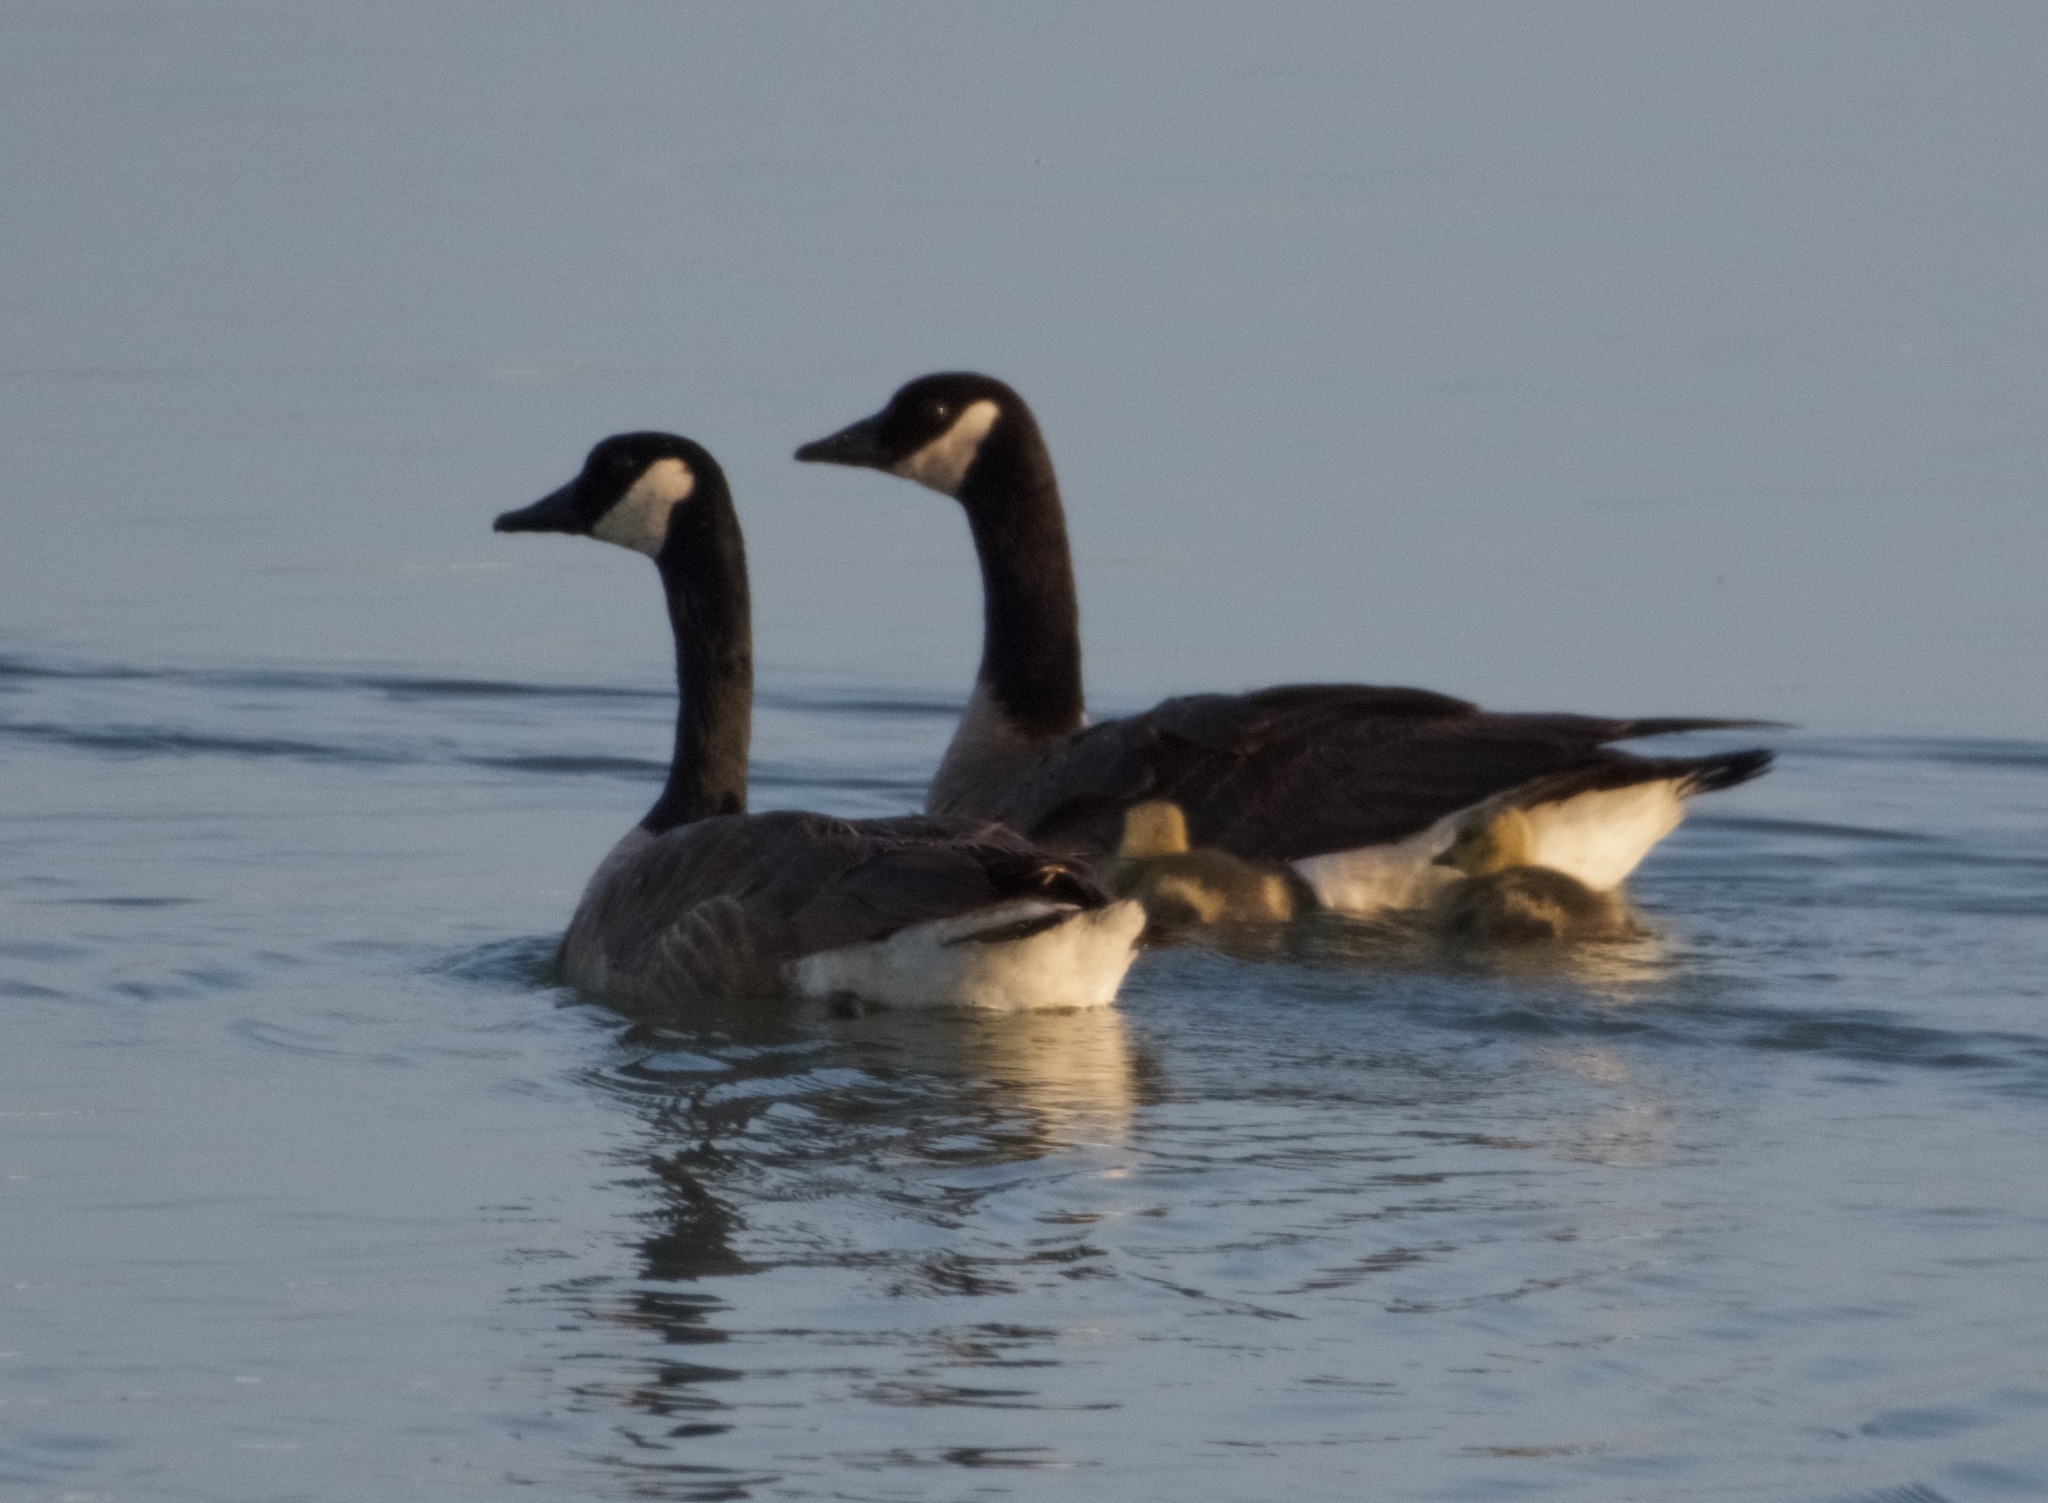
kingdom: Animalia
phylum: Chordata
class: Aves
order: Anseriformes
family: Anatidae
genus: Branta
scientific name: Branta canadensis
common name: Canada goose
